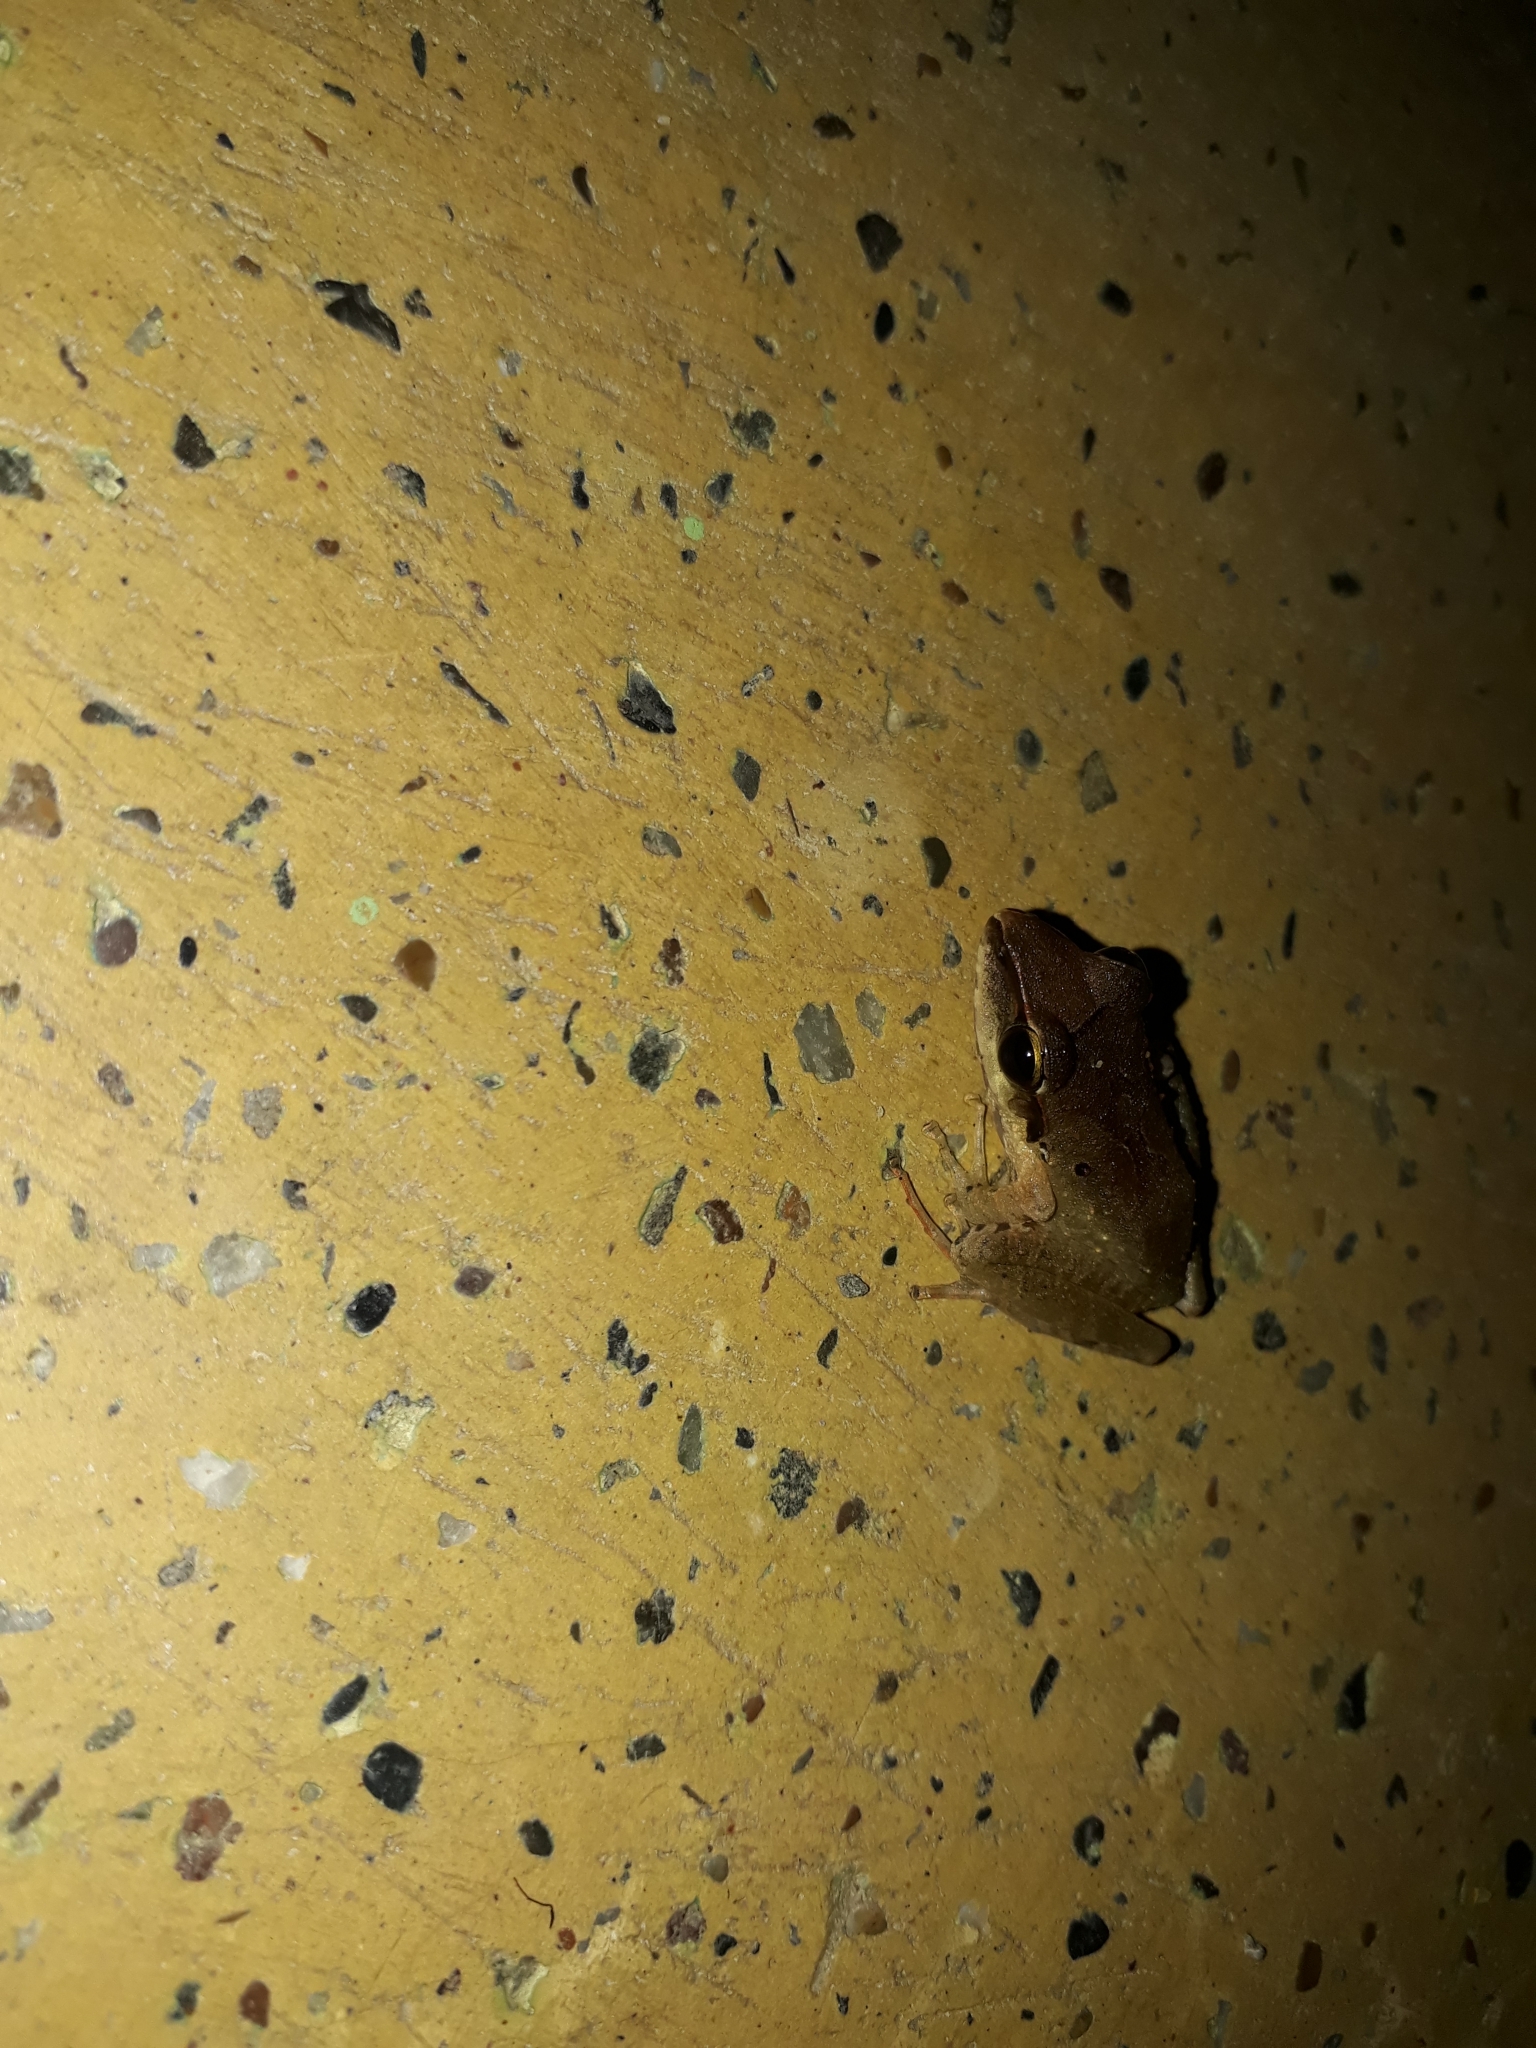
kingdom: Animalia
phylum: Chordata
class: Amphibia
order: Anura
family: Craugastoridae
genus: Craugastor
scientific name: Craugastor raniformis
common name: Robber frog
